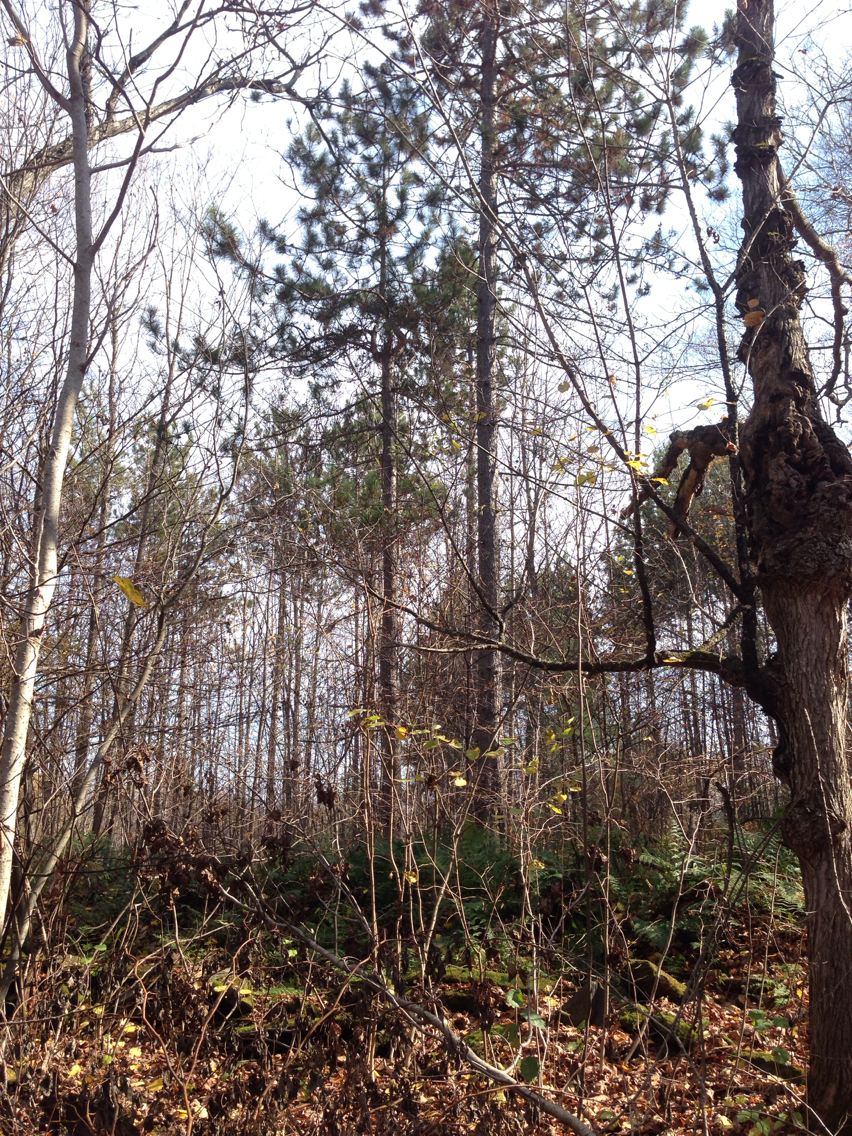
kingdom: Plantae
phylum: Tracheophyta
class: Pinopsida
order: Pinales
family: Pinaceae
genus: Pinus
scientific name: Pinus resinosa
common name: Norway pine
